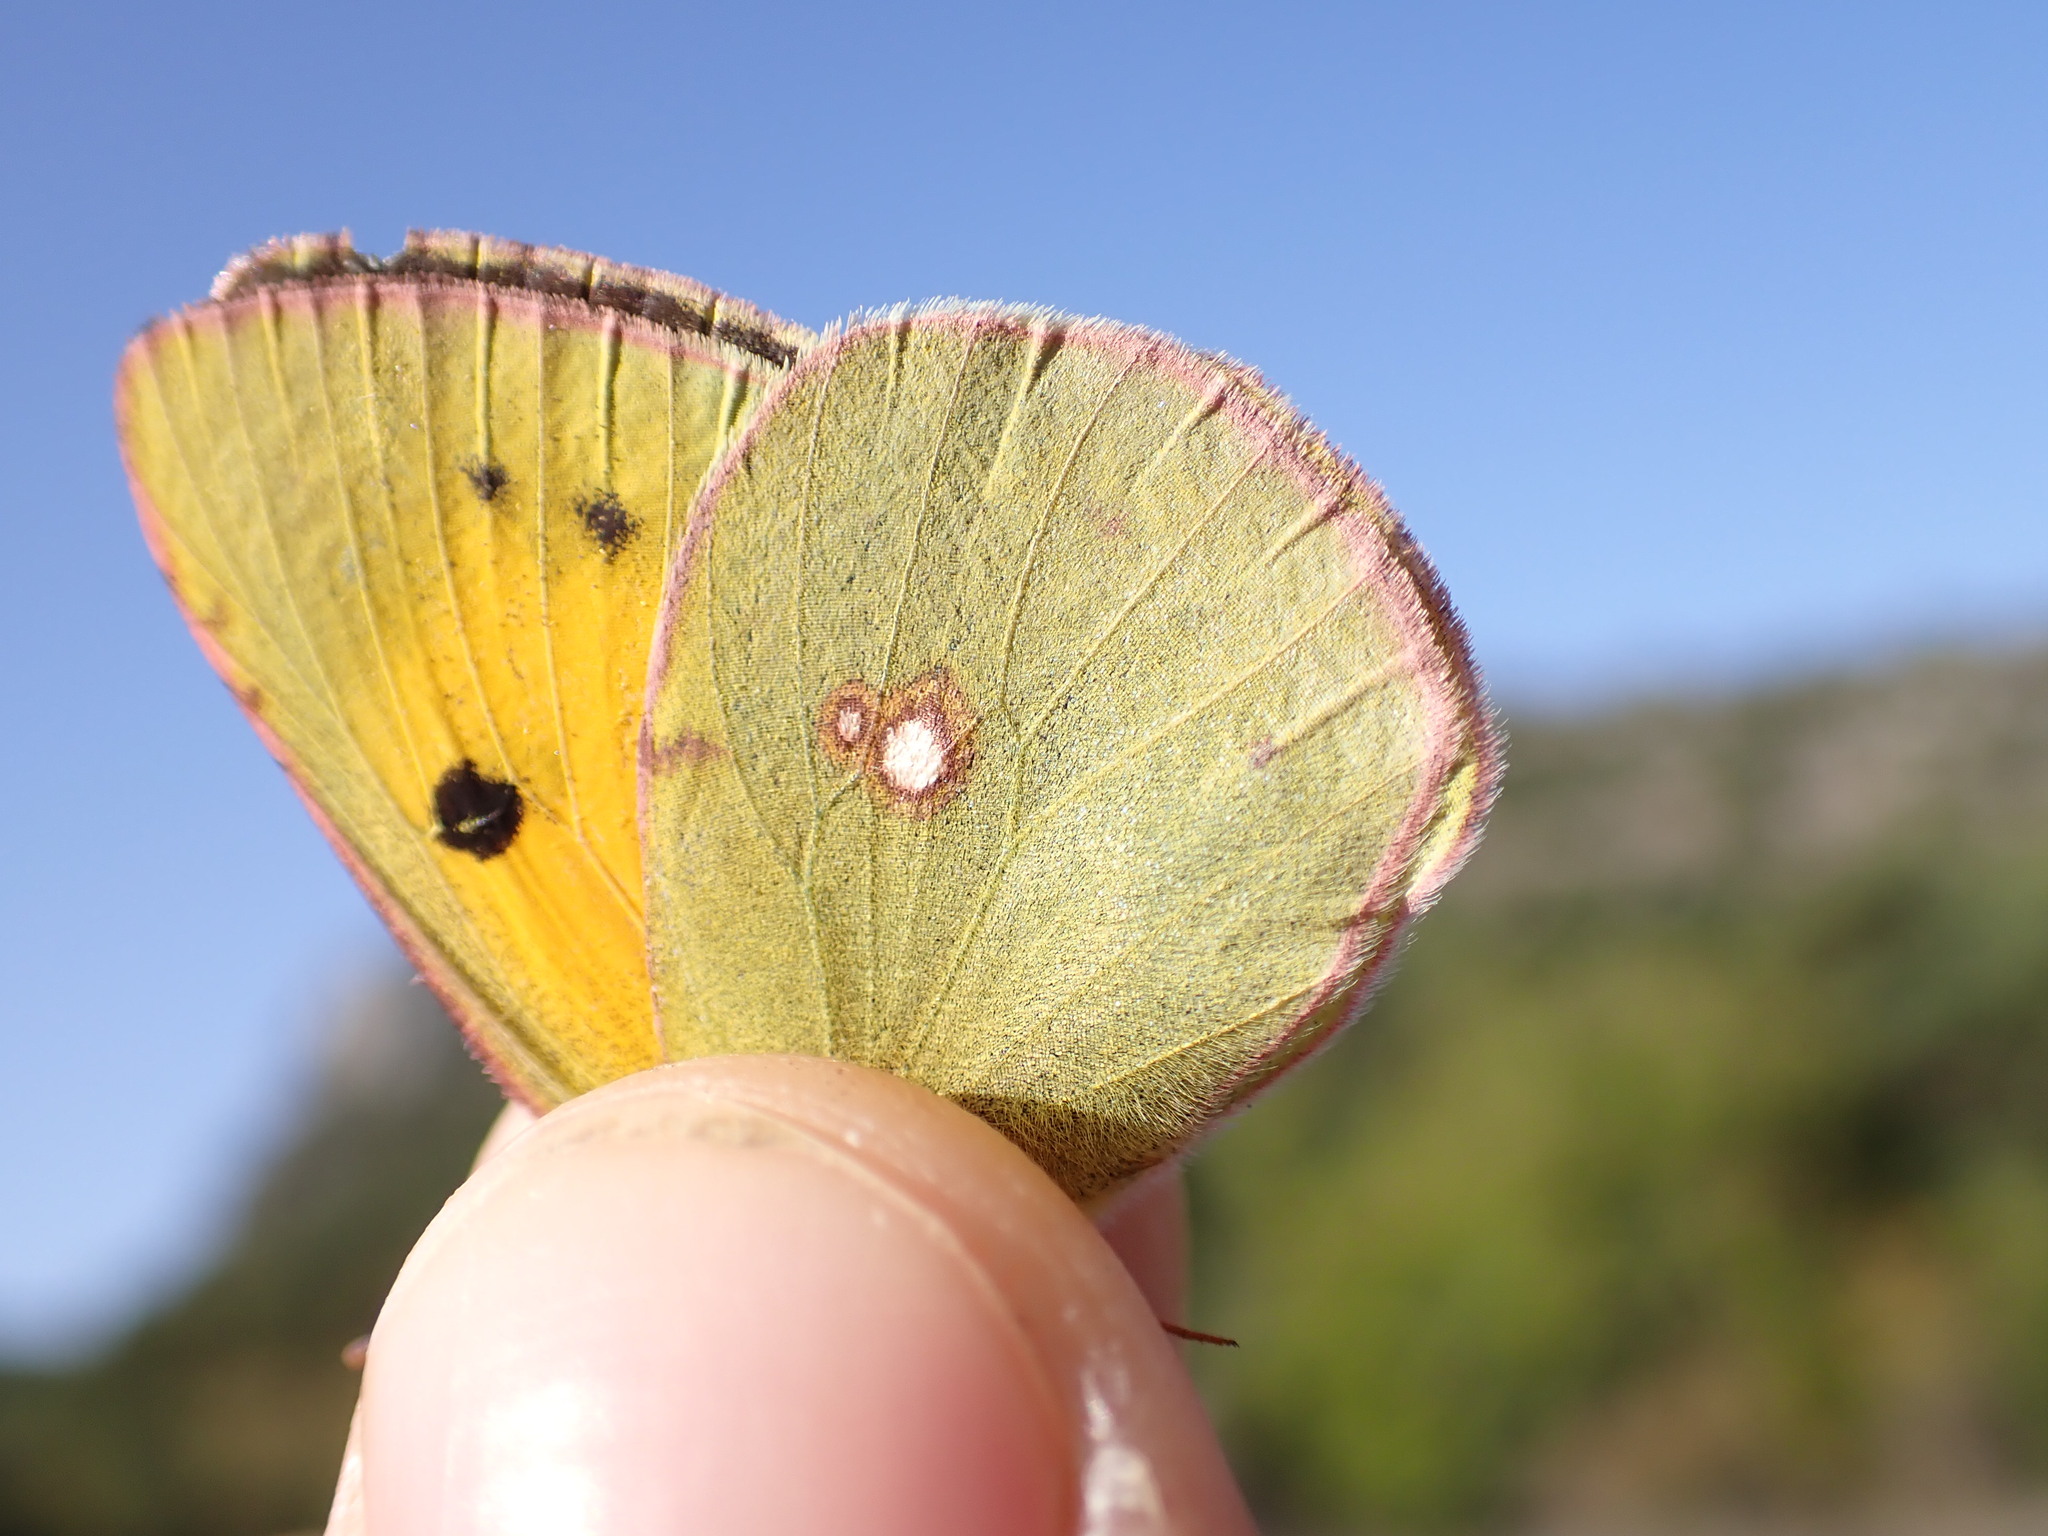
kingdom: Animalia
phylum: Arthropoda
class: Insecta
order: Lepidoptera
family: Pieridae
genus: Colias
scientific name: Colias croceus
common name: Clouded yellow
